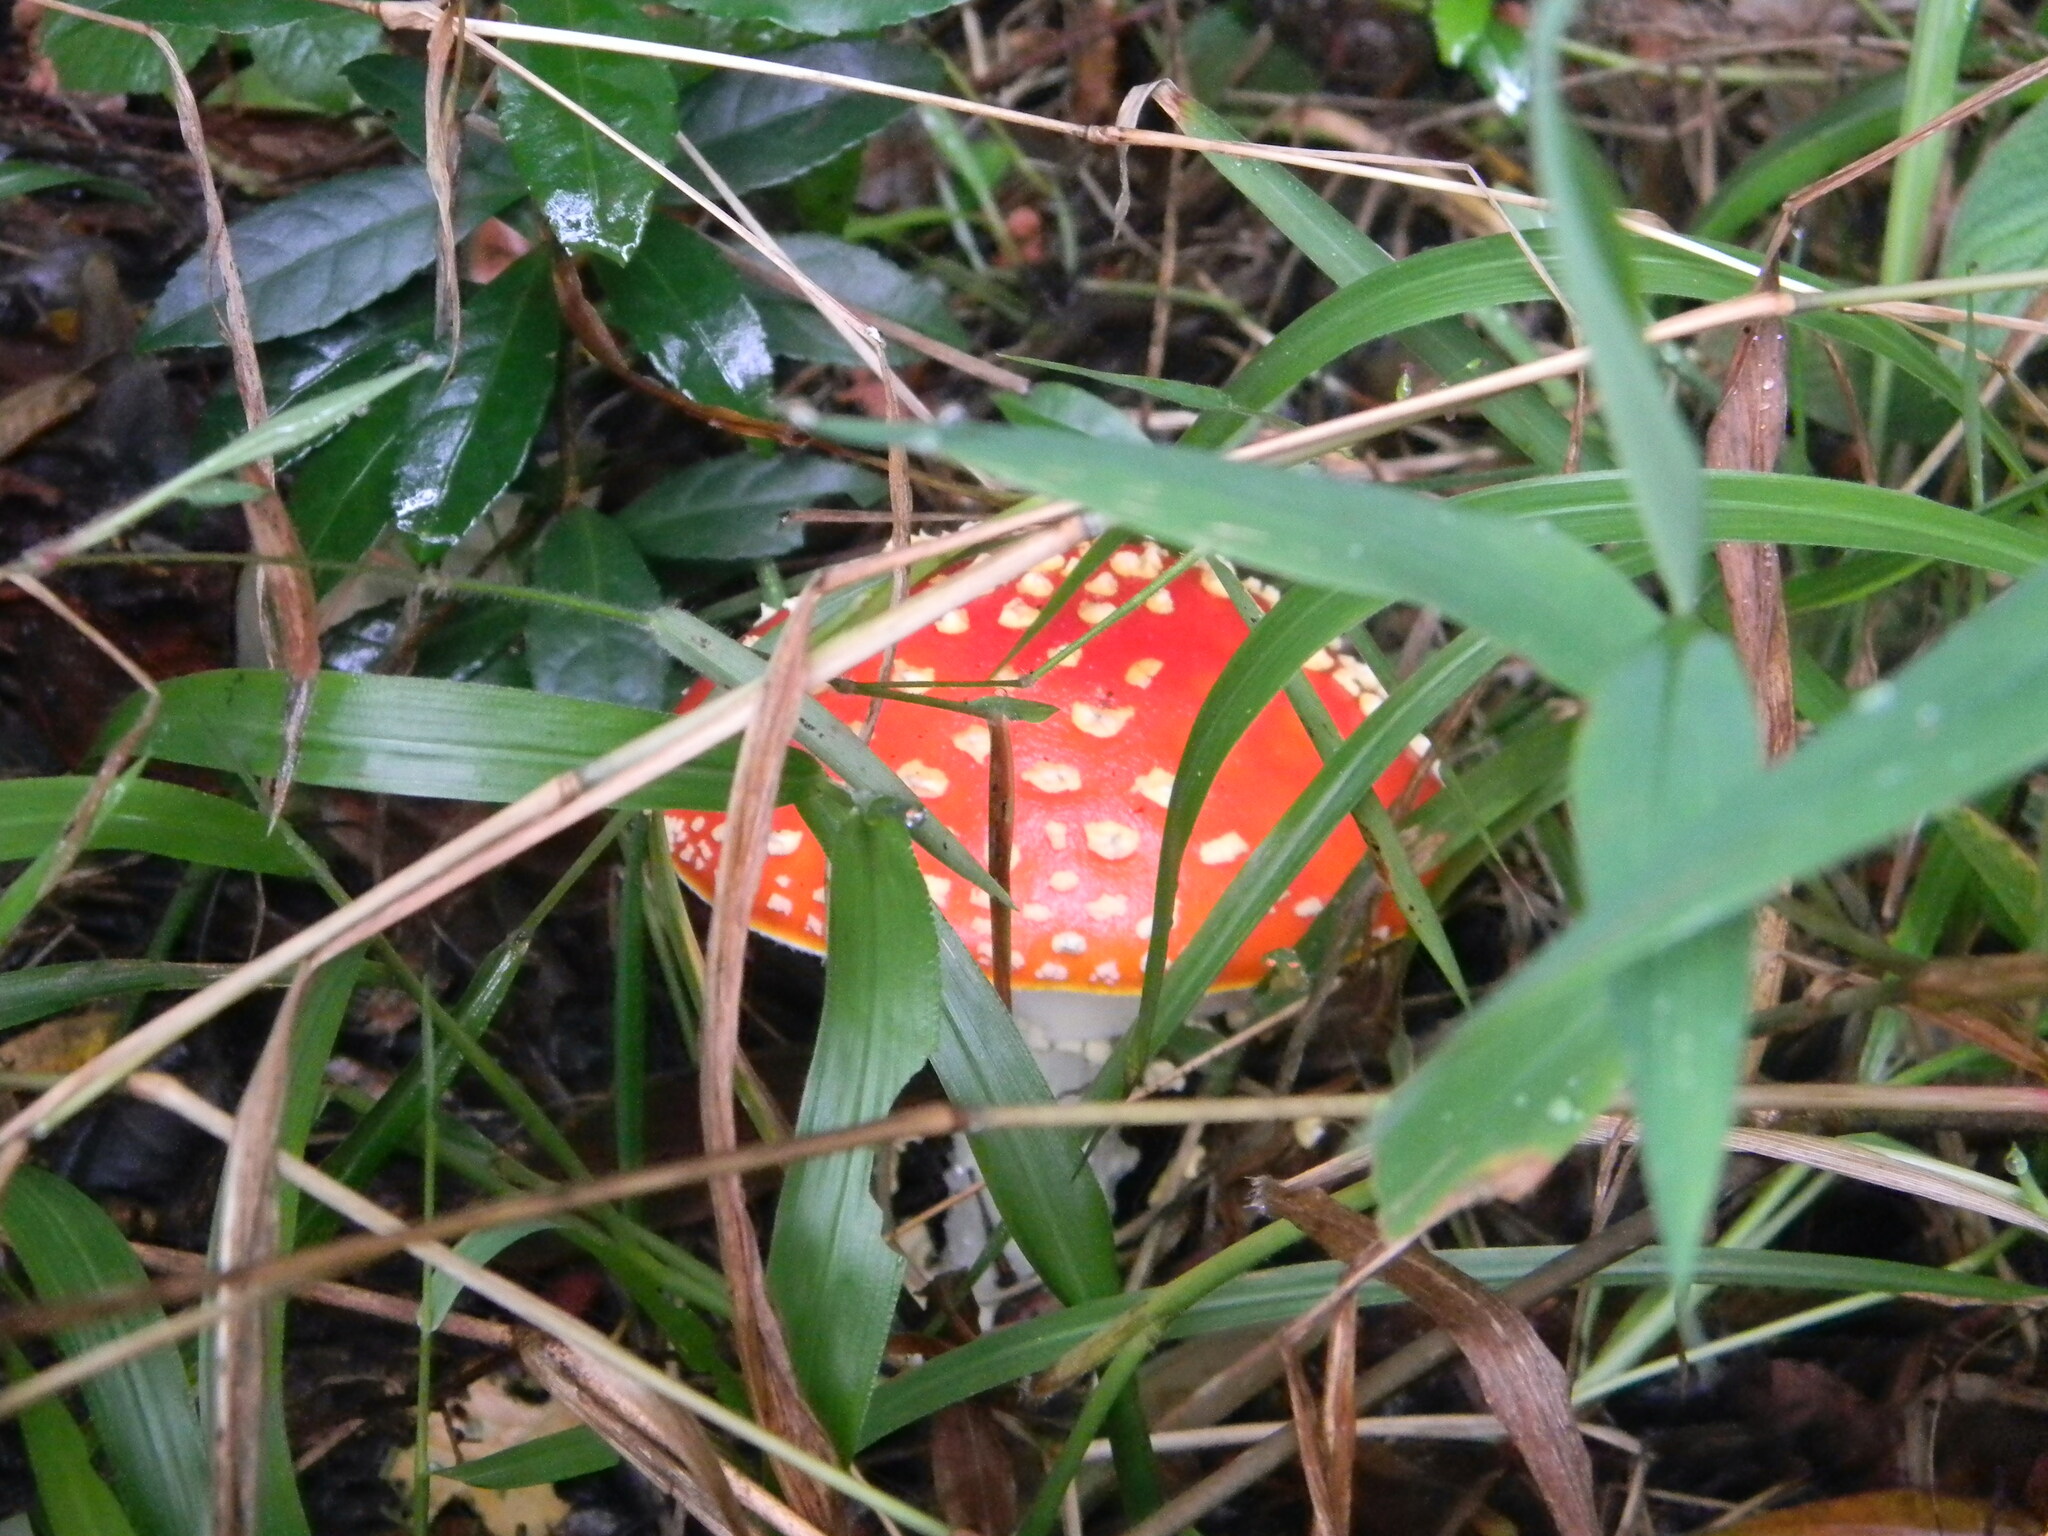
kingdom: Fungi
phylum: Basidiomycota
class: Agaricomycetes
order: Agaricales
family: Amanitaceae
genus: Amanita
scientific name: Amanita muscaria
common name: Fly agaric
